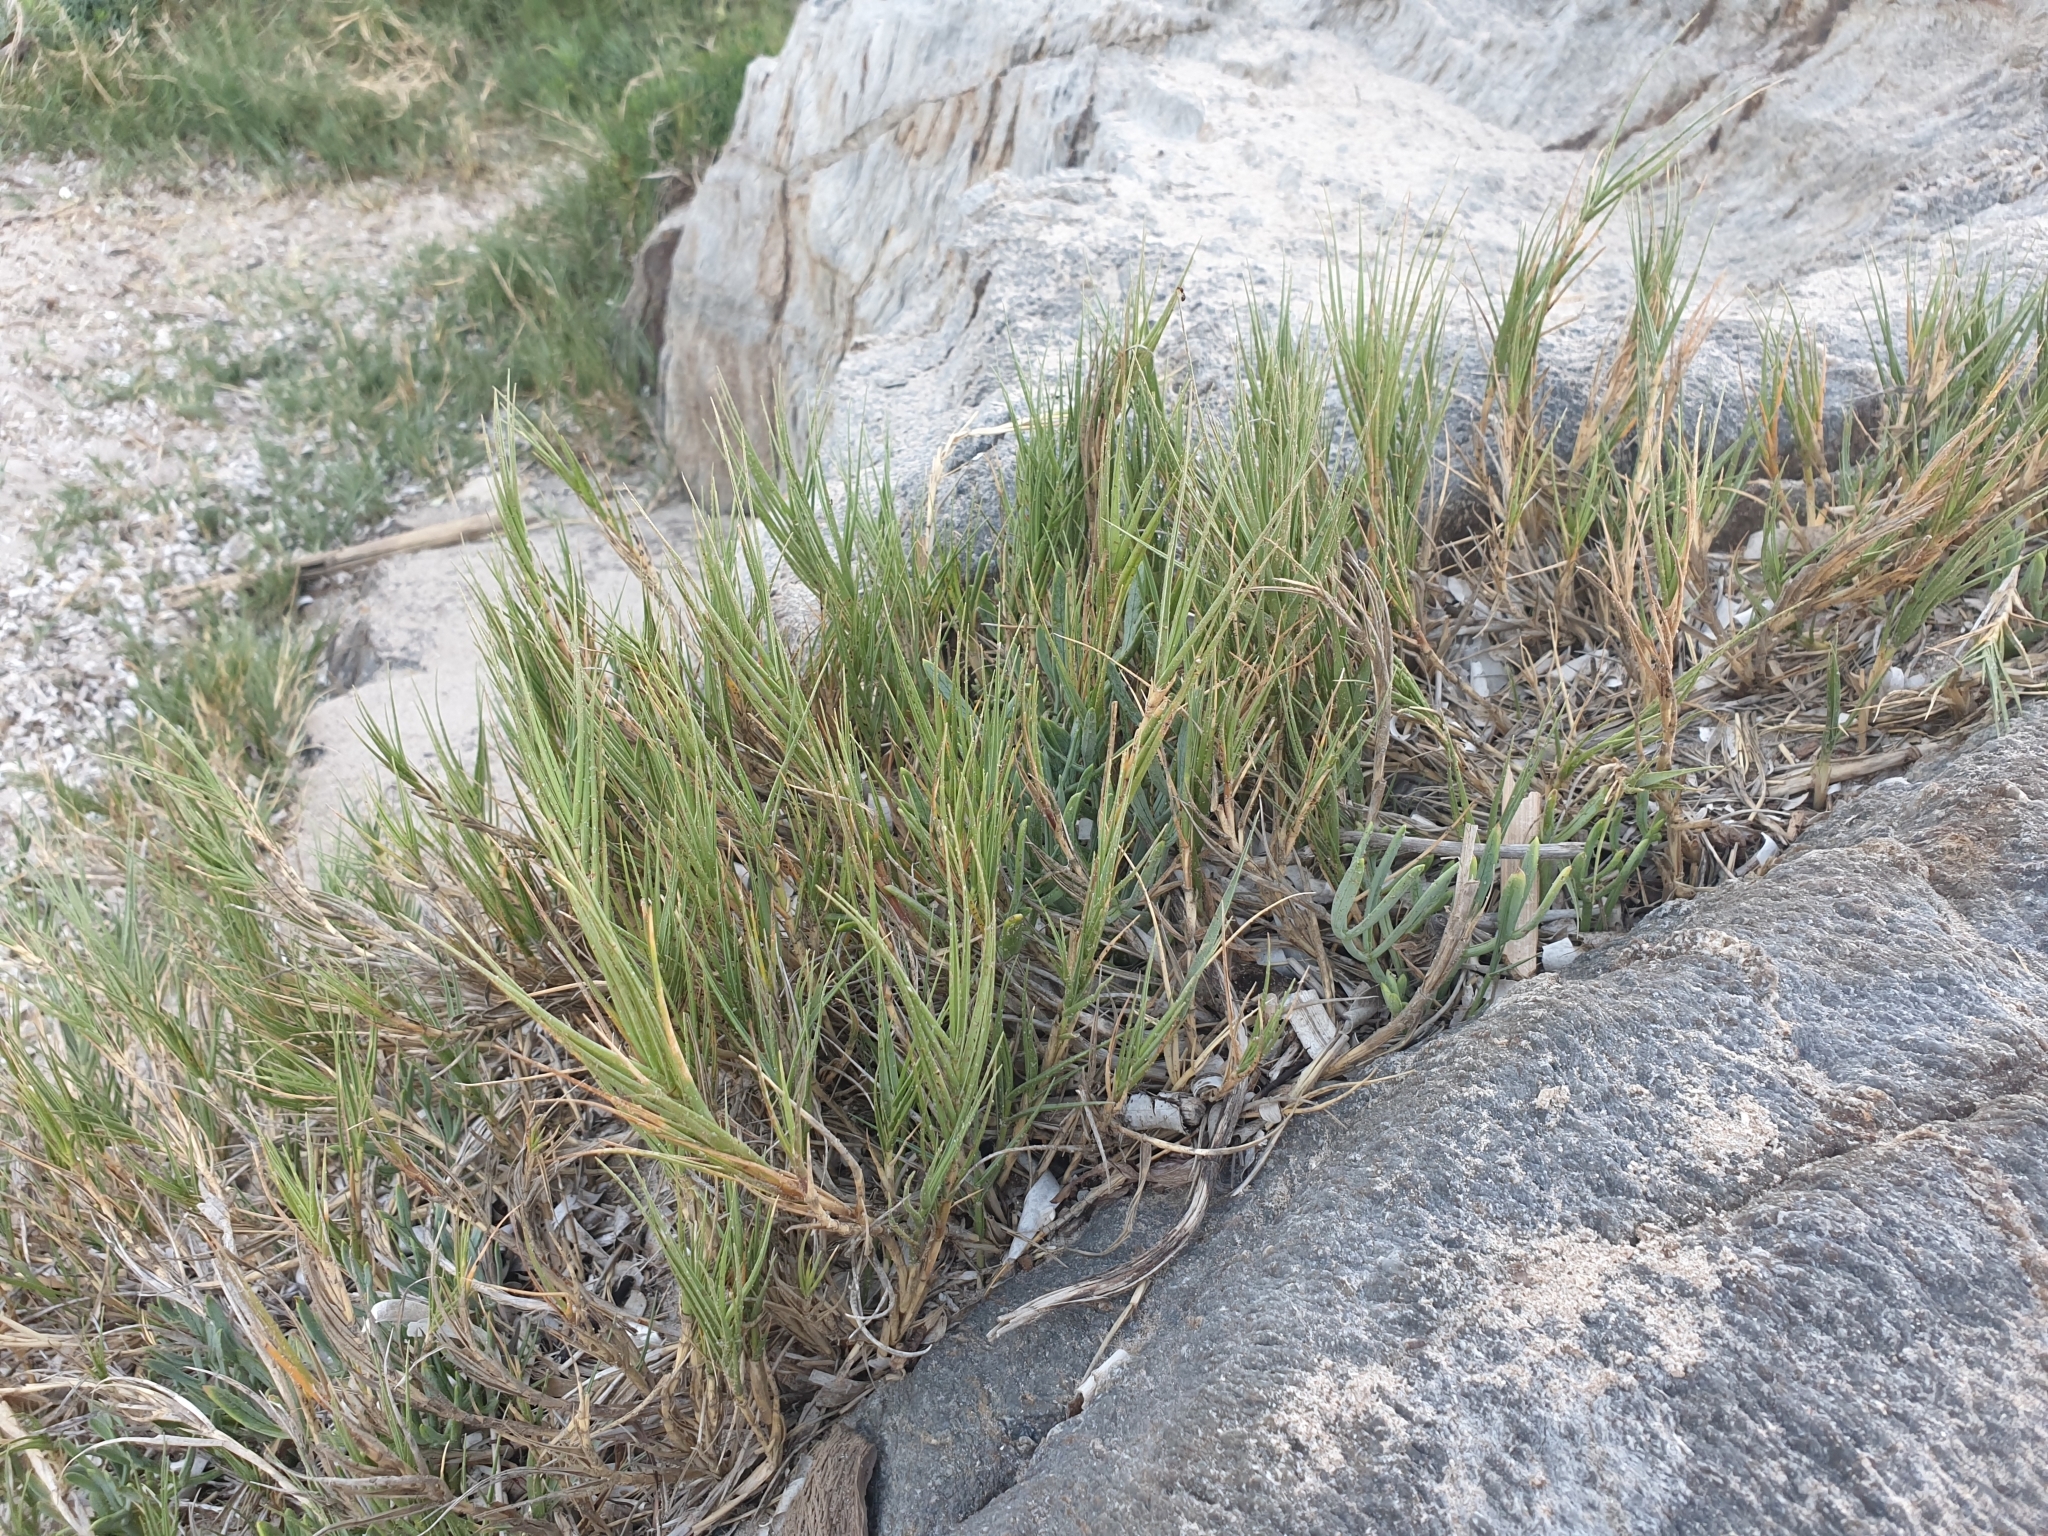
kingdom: Plantae
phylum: Tracheophyta
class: Liliopsida
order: Poales
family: Poaceae
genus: Sporobolus
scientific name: Sporobolus pungens
